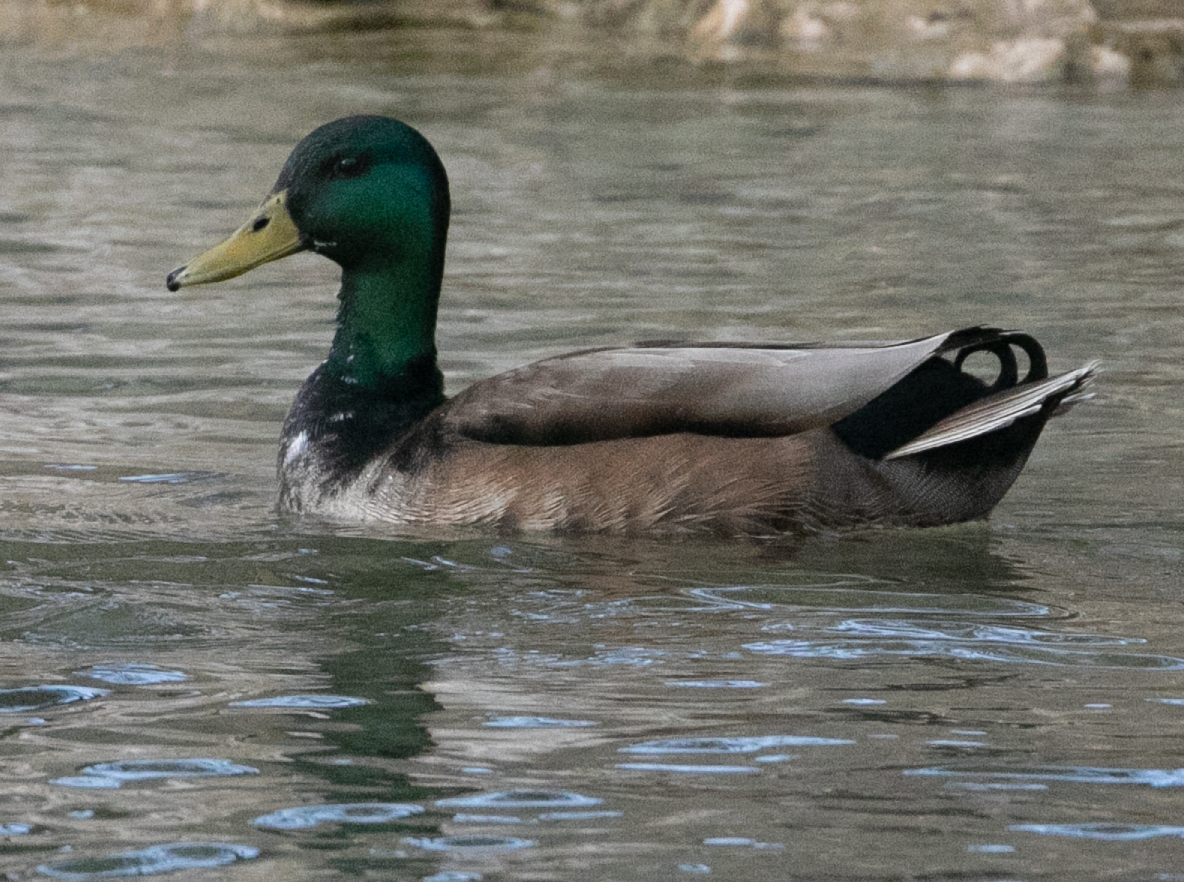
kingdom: Animalia
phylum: Chordata
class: Aves
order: Anseriformes
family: Anatidae
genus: Anas
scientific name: Anas platyrhynchos
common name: Mallard
